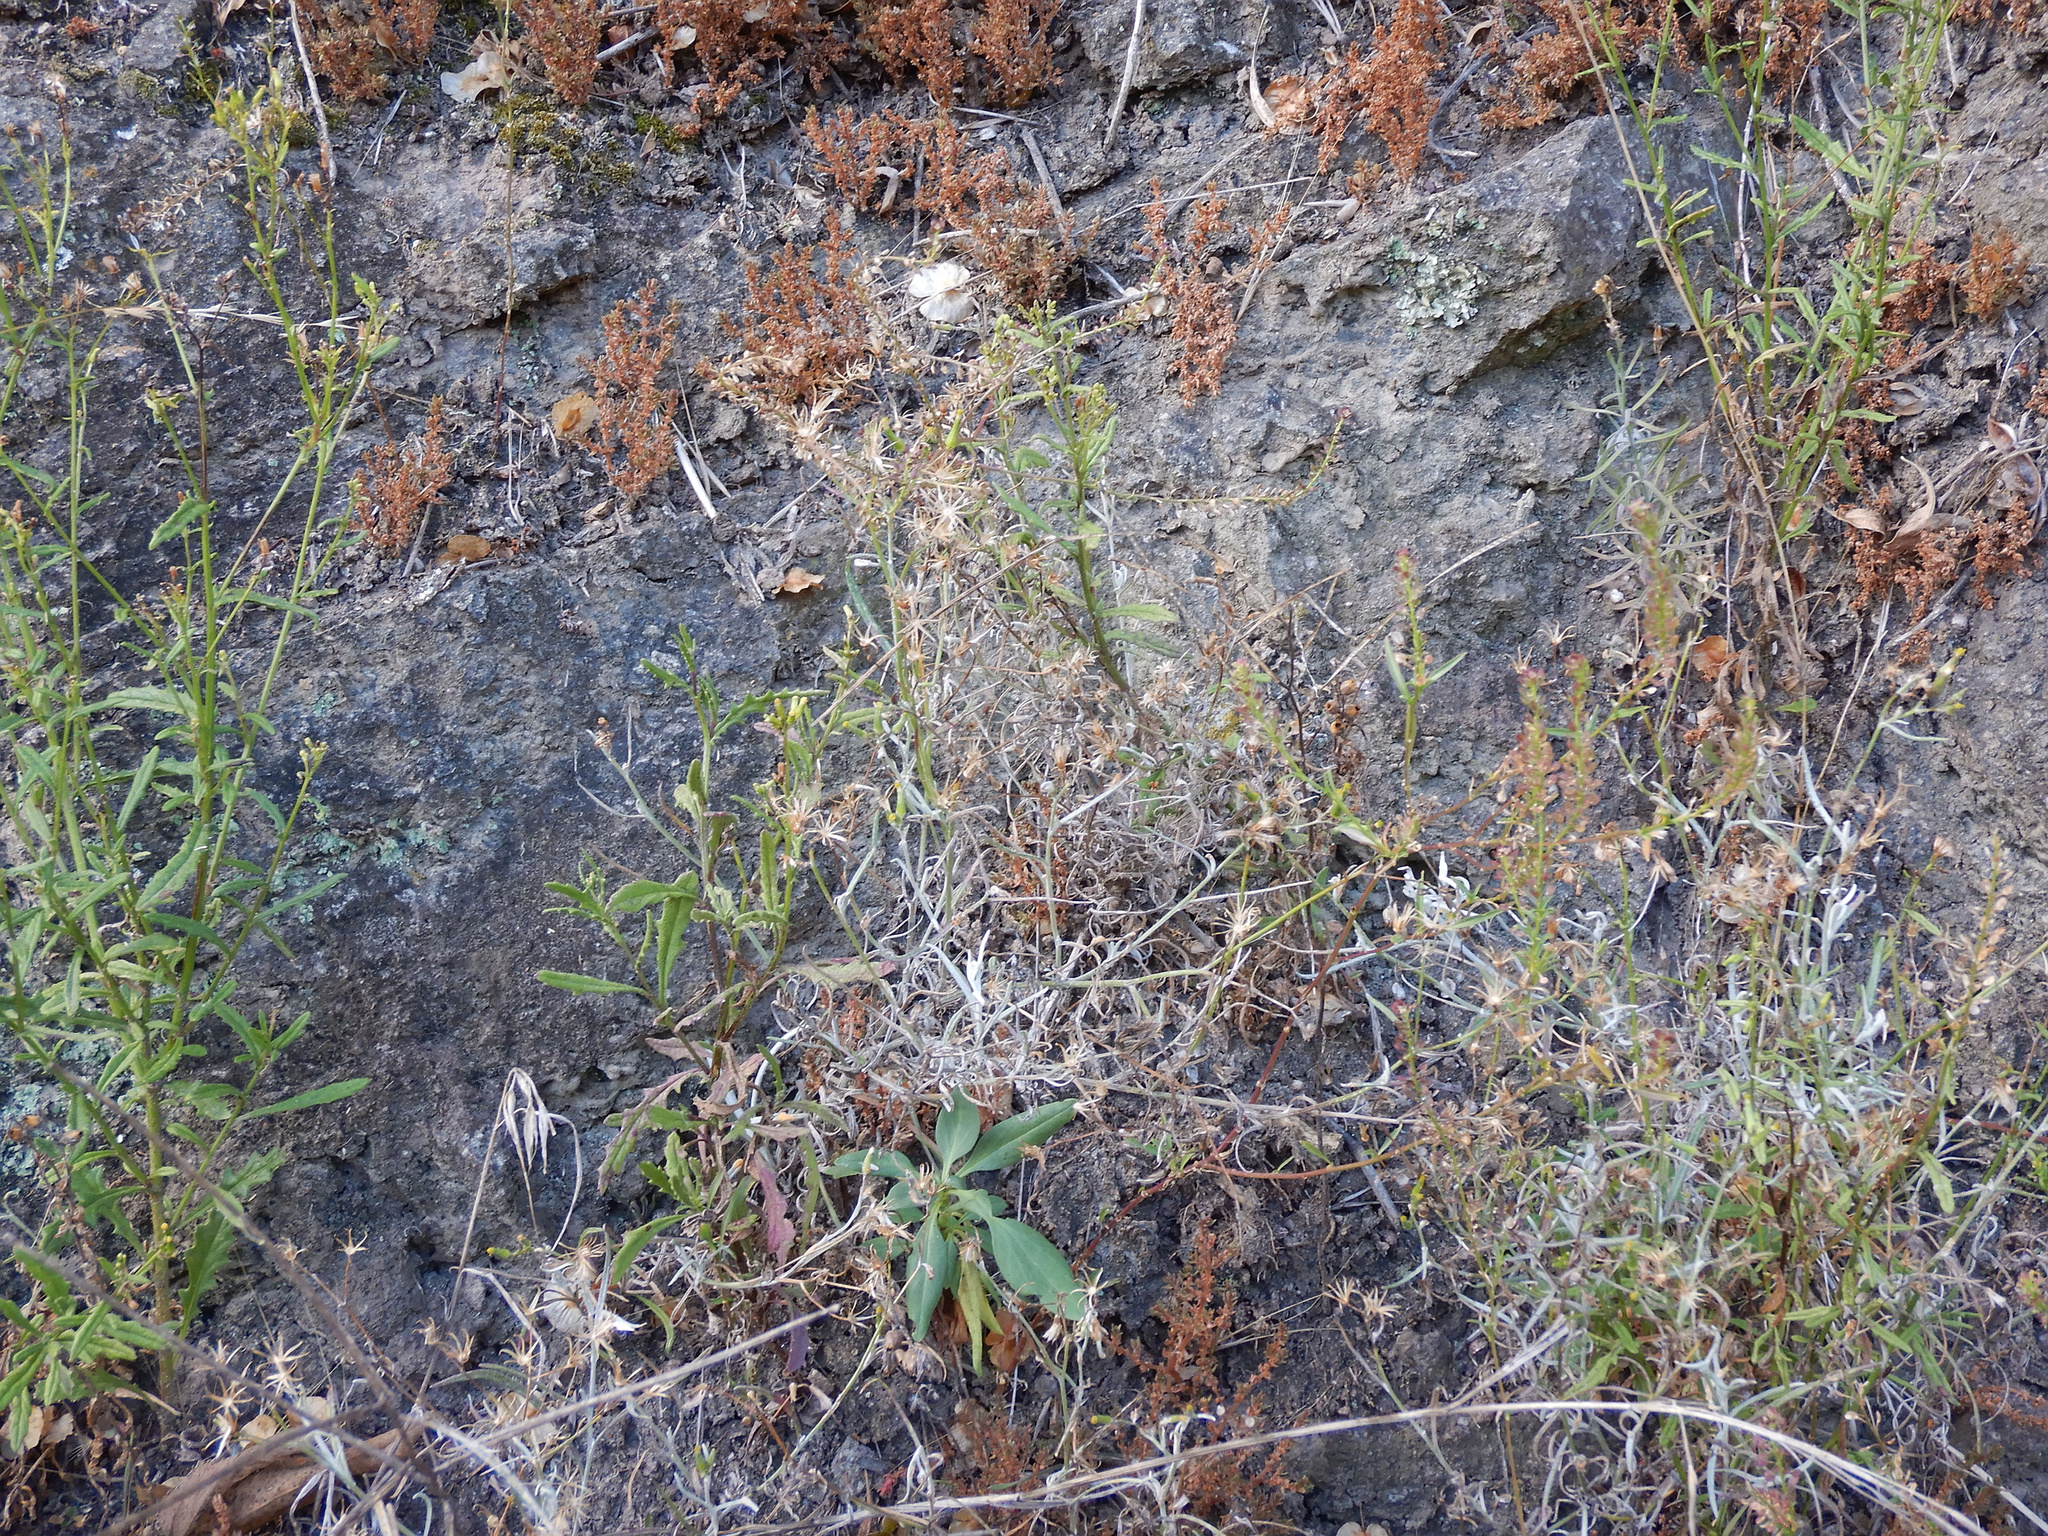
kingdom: Plantae
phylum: Tracheophyta
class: Magnoliopsida
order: Asterales
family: Asteraceae
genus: Senecio
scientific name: Senecio hispidulus
